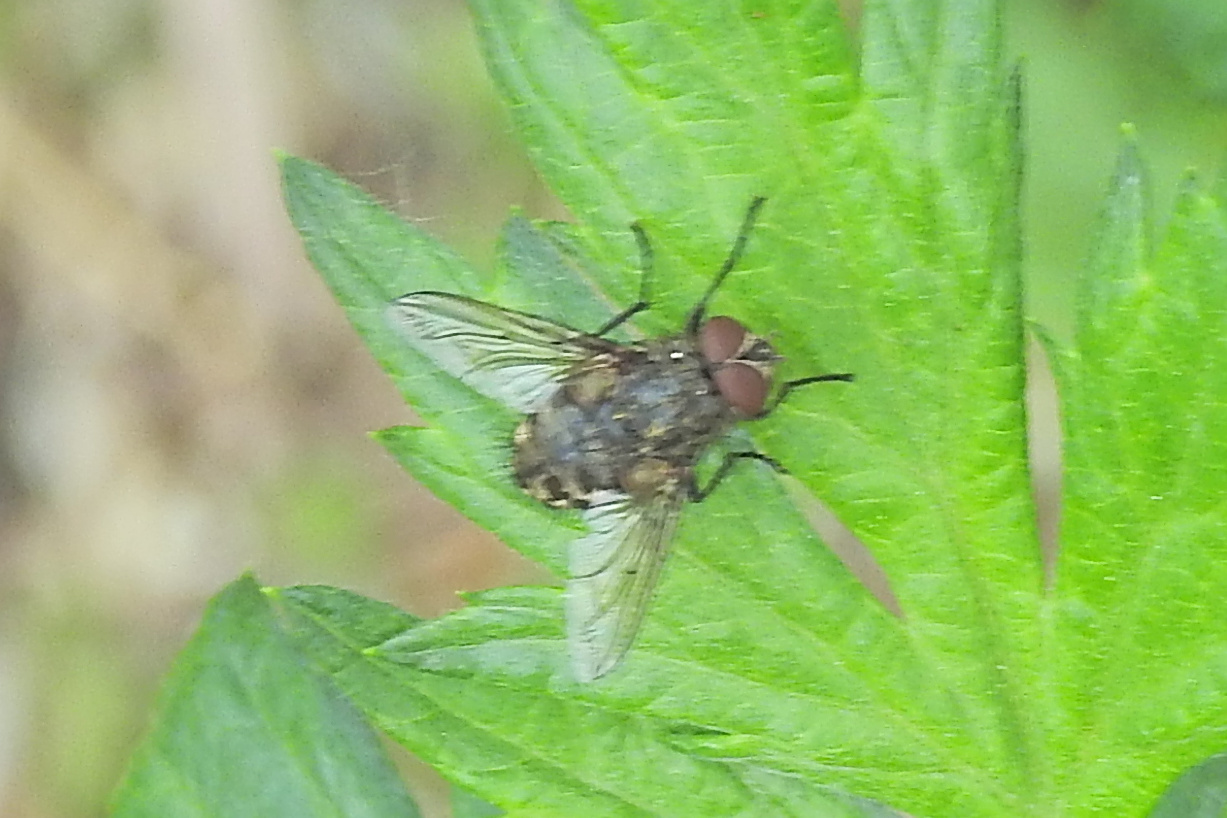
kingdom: Animalia
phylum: Arthropoda
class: Insecta
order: Diptera
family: Polleniidae
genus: Pollenia
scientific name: Pollenia
